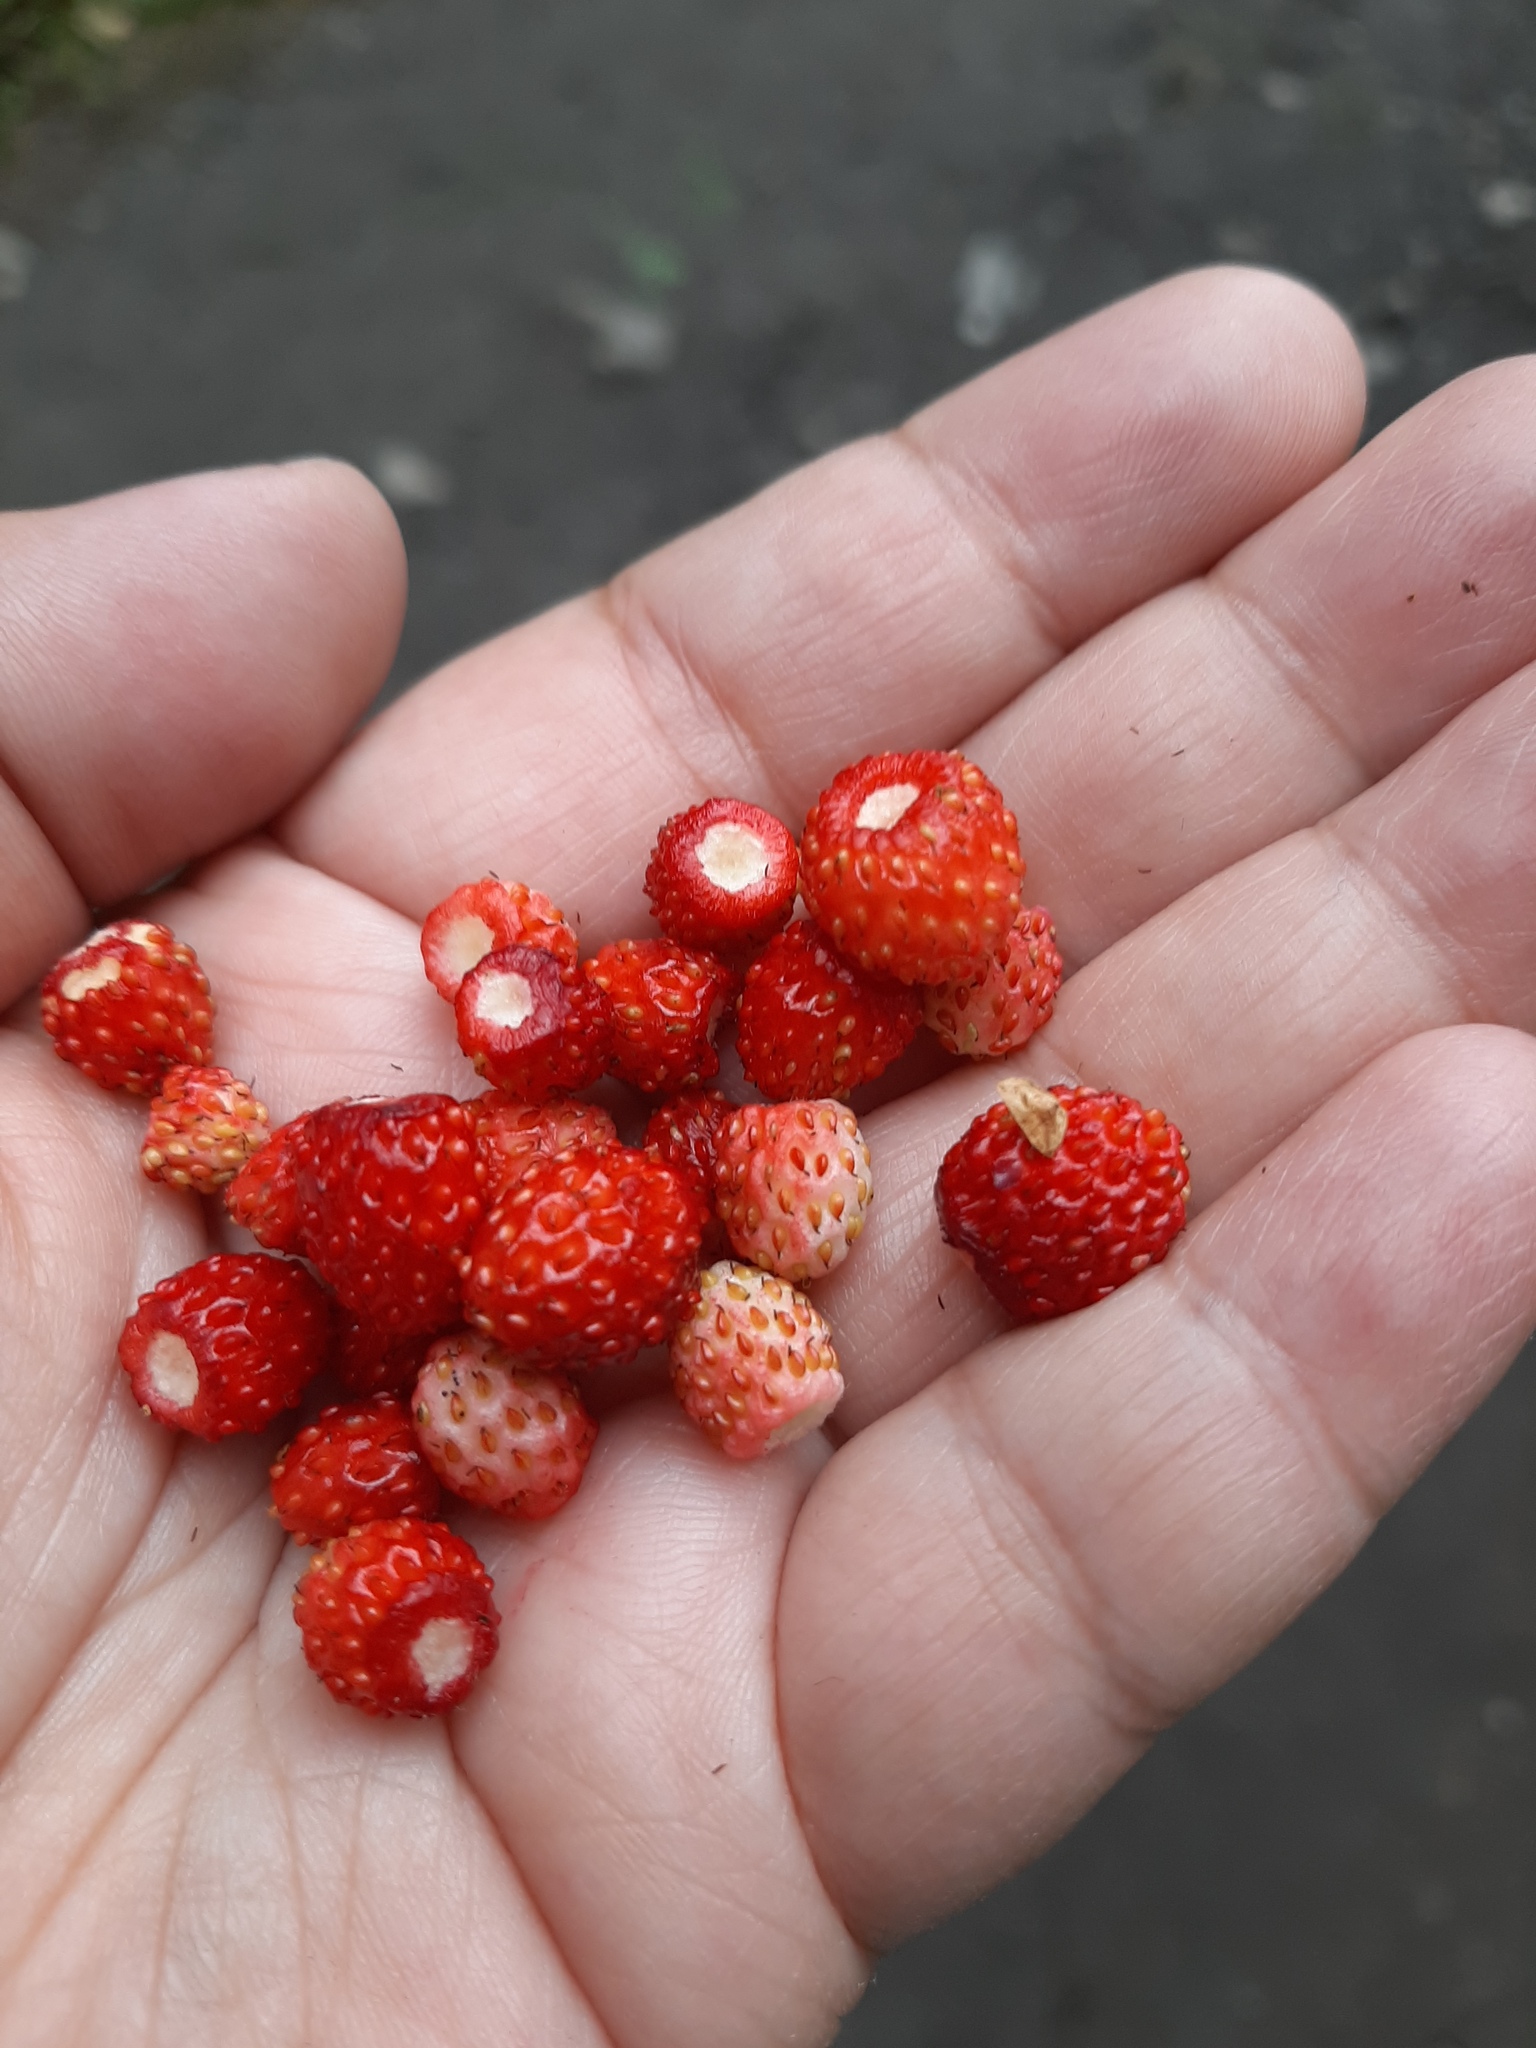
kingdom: Plantae
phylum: Tracheophyta
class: Magnoliopsida
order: Rosales
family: Rosaceae
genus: Fragaria
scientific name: Fragaria vesca
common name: Wild strawberry
